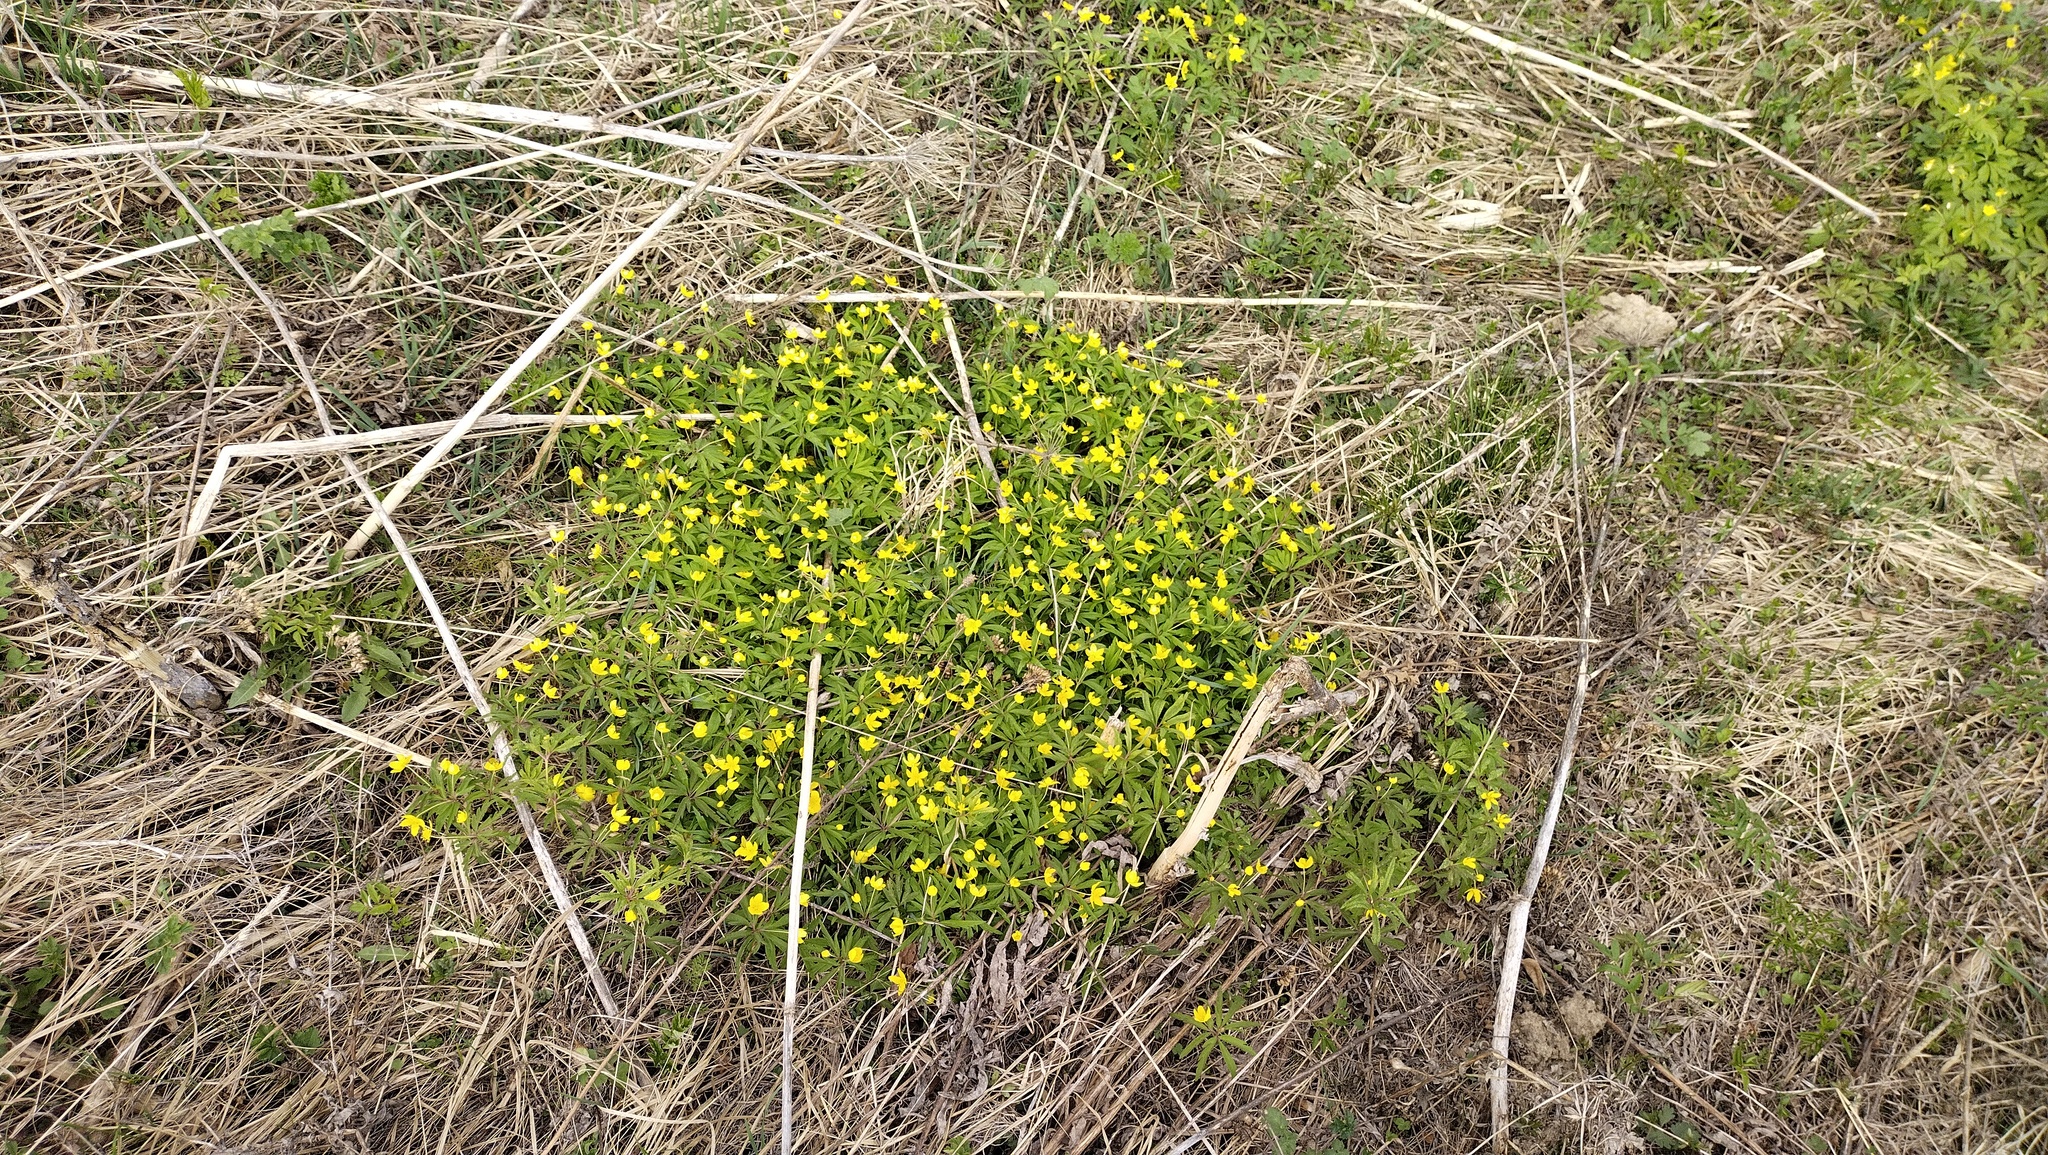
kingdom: Plantae
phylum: Tracheophyta
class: Magnoliopsida
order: Ranunculales
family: Ranunculaceae
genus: Anemone
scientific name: Anemone ranunculoides
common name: Yellow anemone
